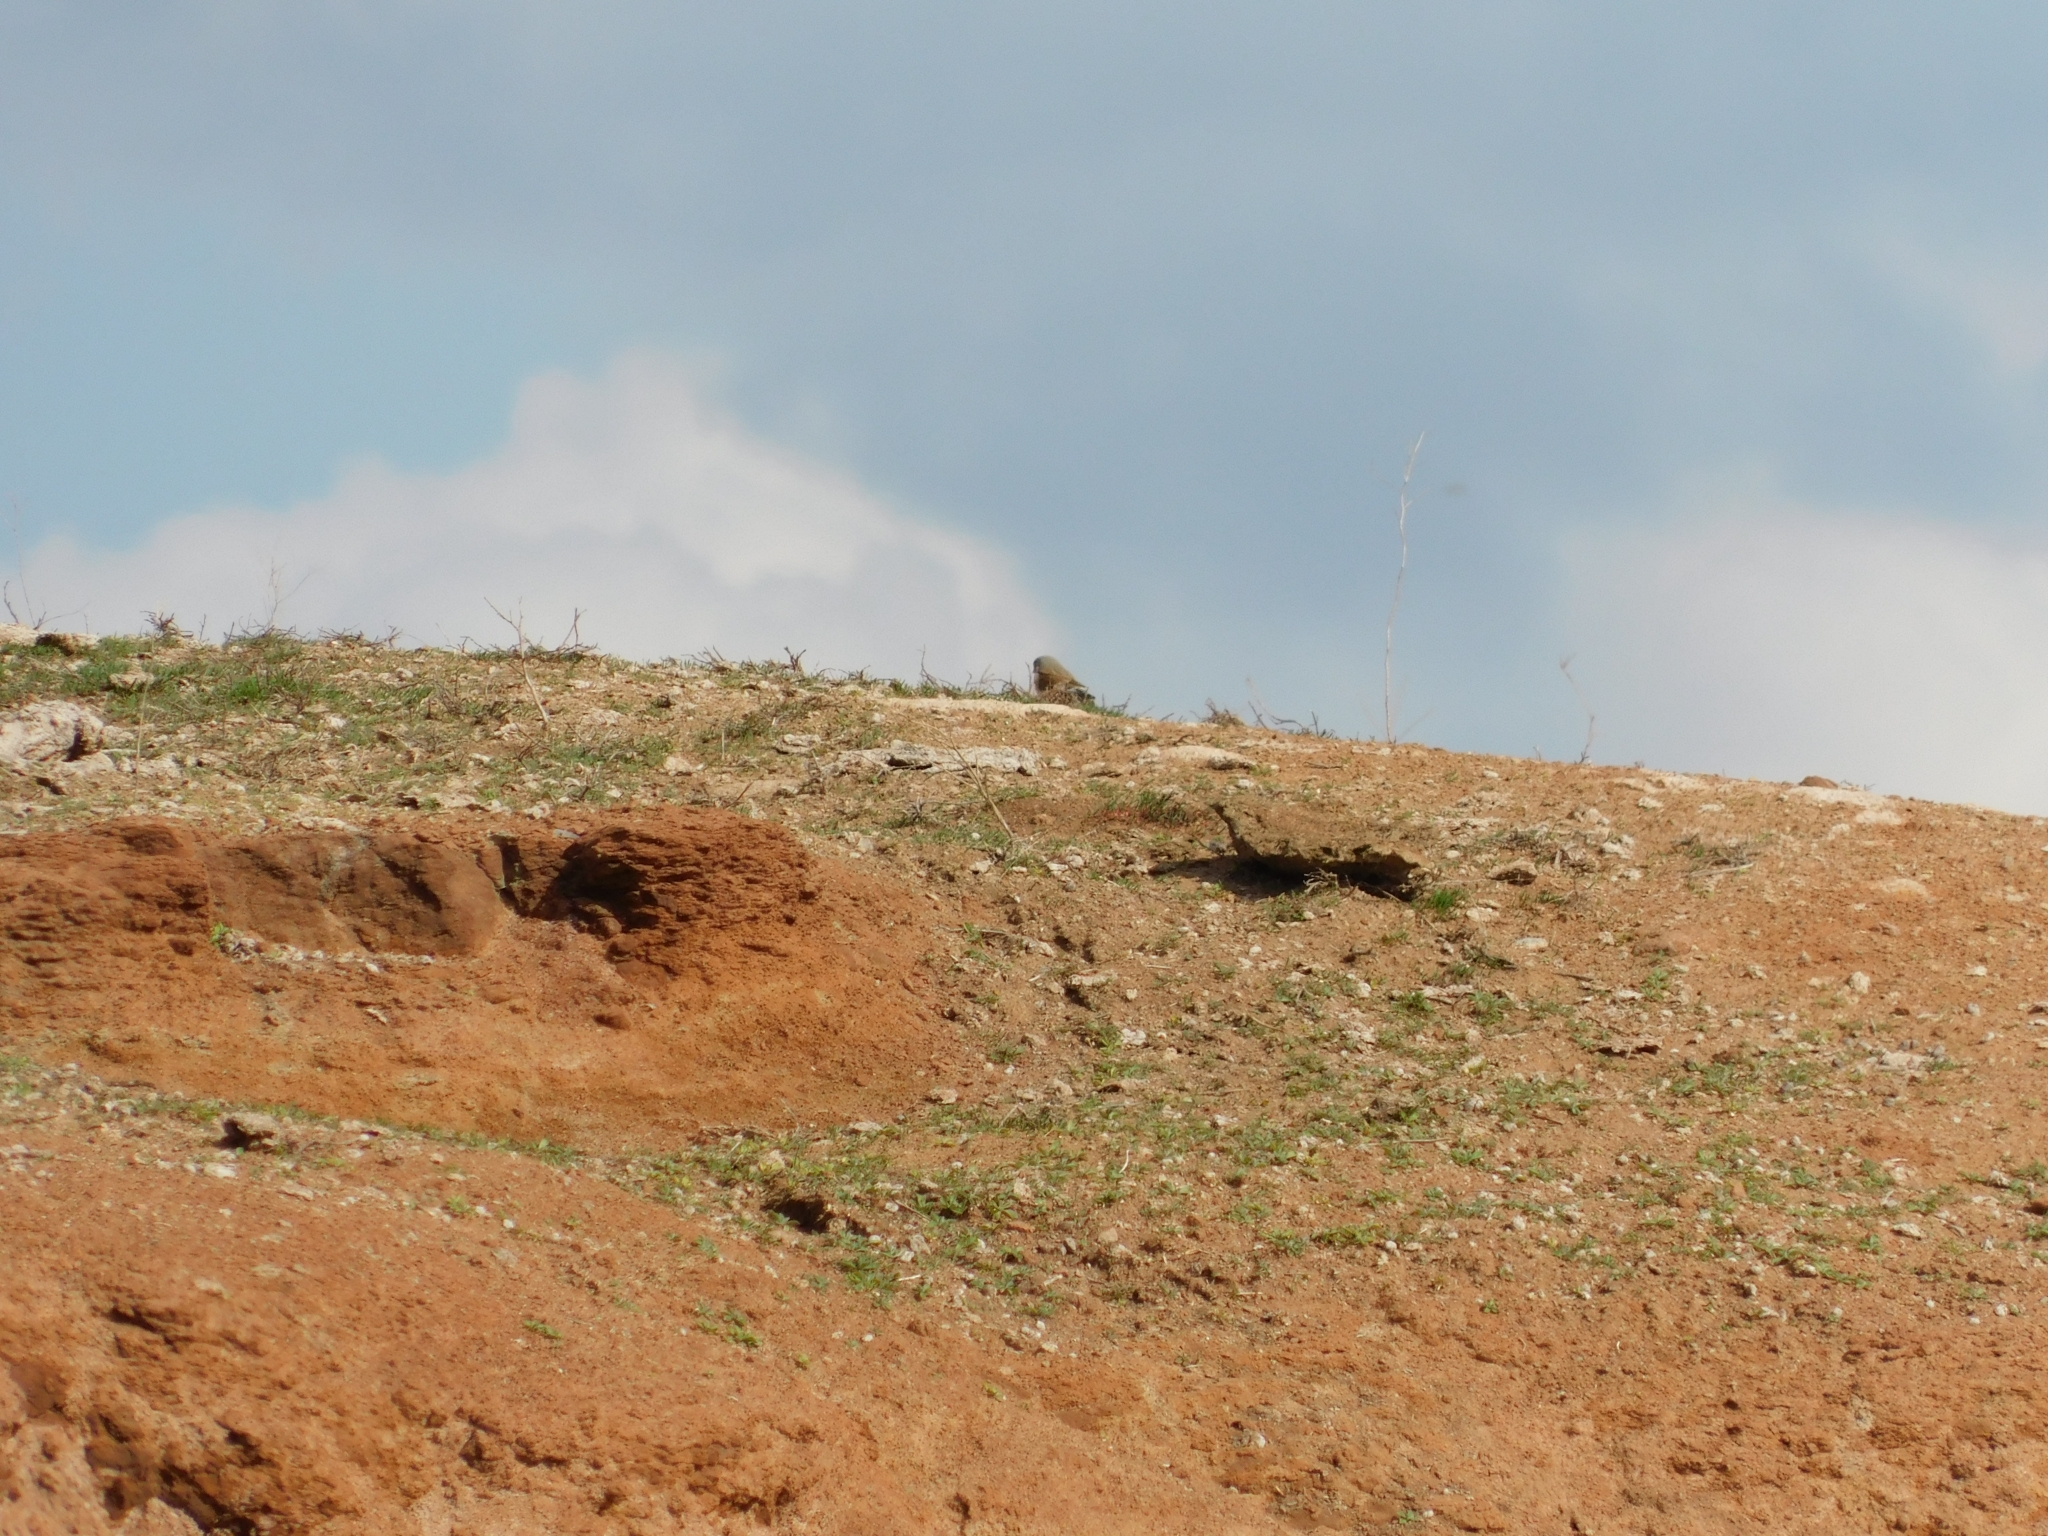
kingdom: Animalia
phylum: Chordata
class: Aves
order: Passeriformes
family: Fringillidae
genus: Linaria
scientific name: Linaria cannabina
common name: Common linnet
